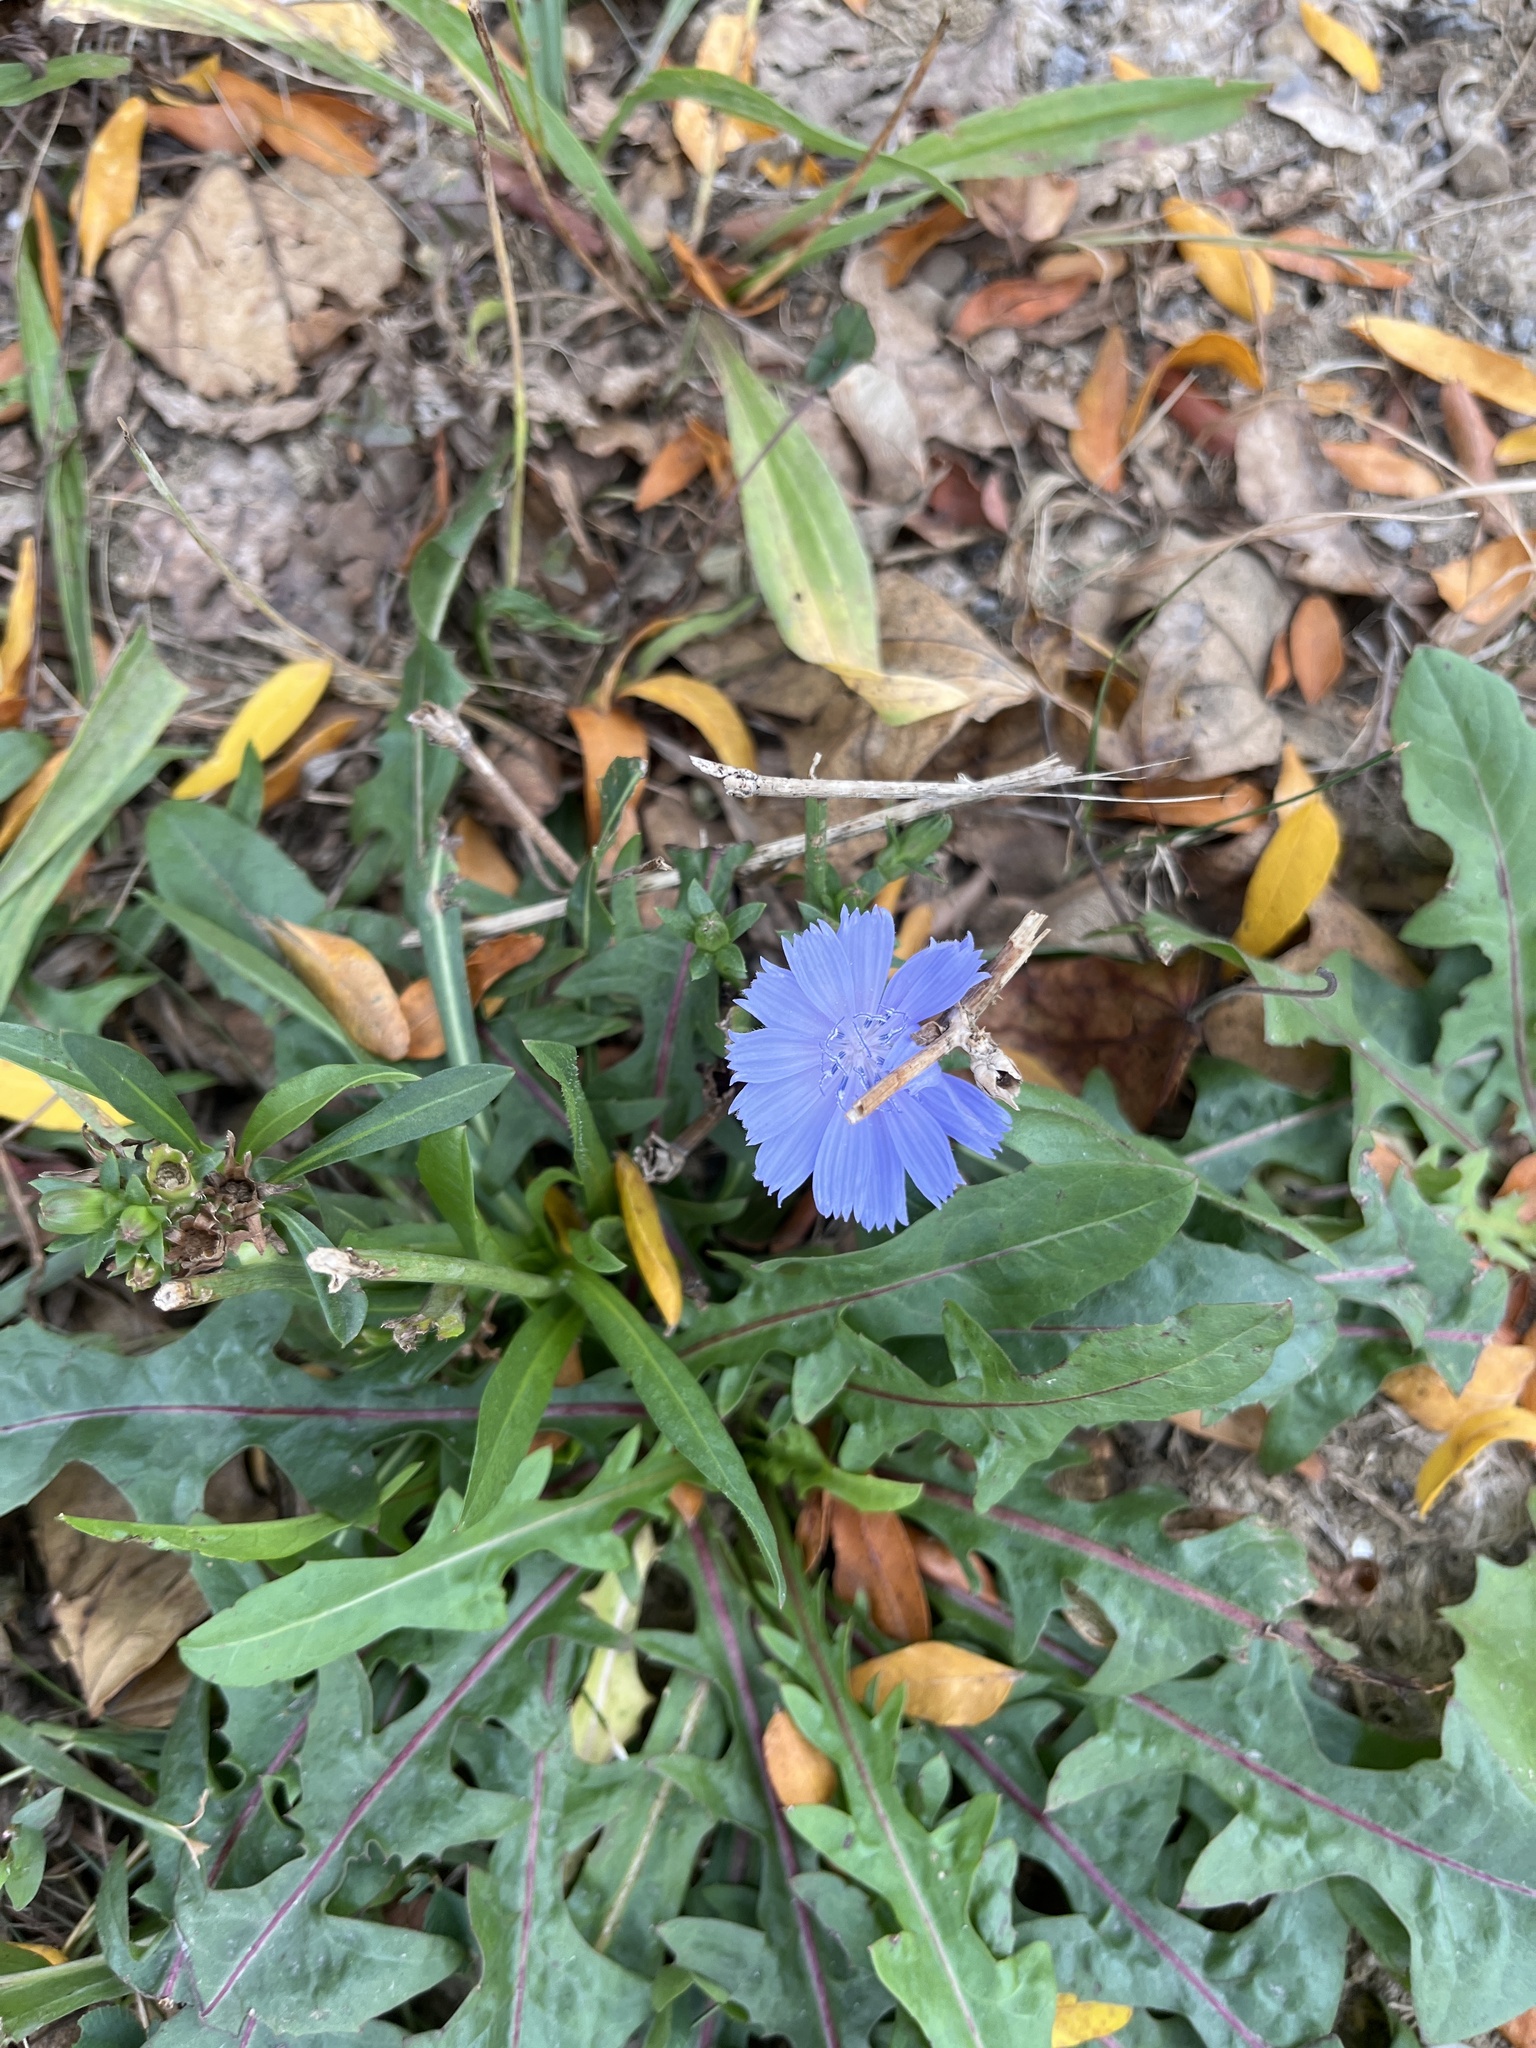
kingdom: Plantae
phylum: Tracheophyta
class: Magnoliopsida
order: Asterales
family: Asteraceae
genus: Cichorium
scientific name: Cichorium intybus
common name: Chicory
